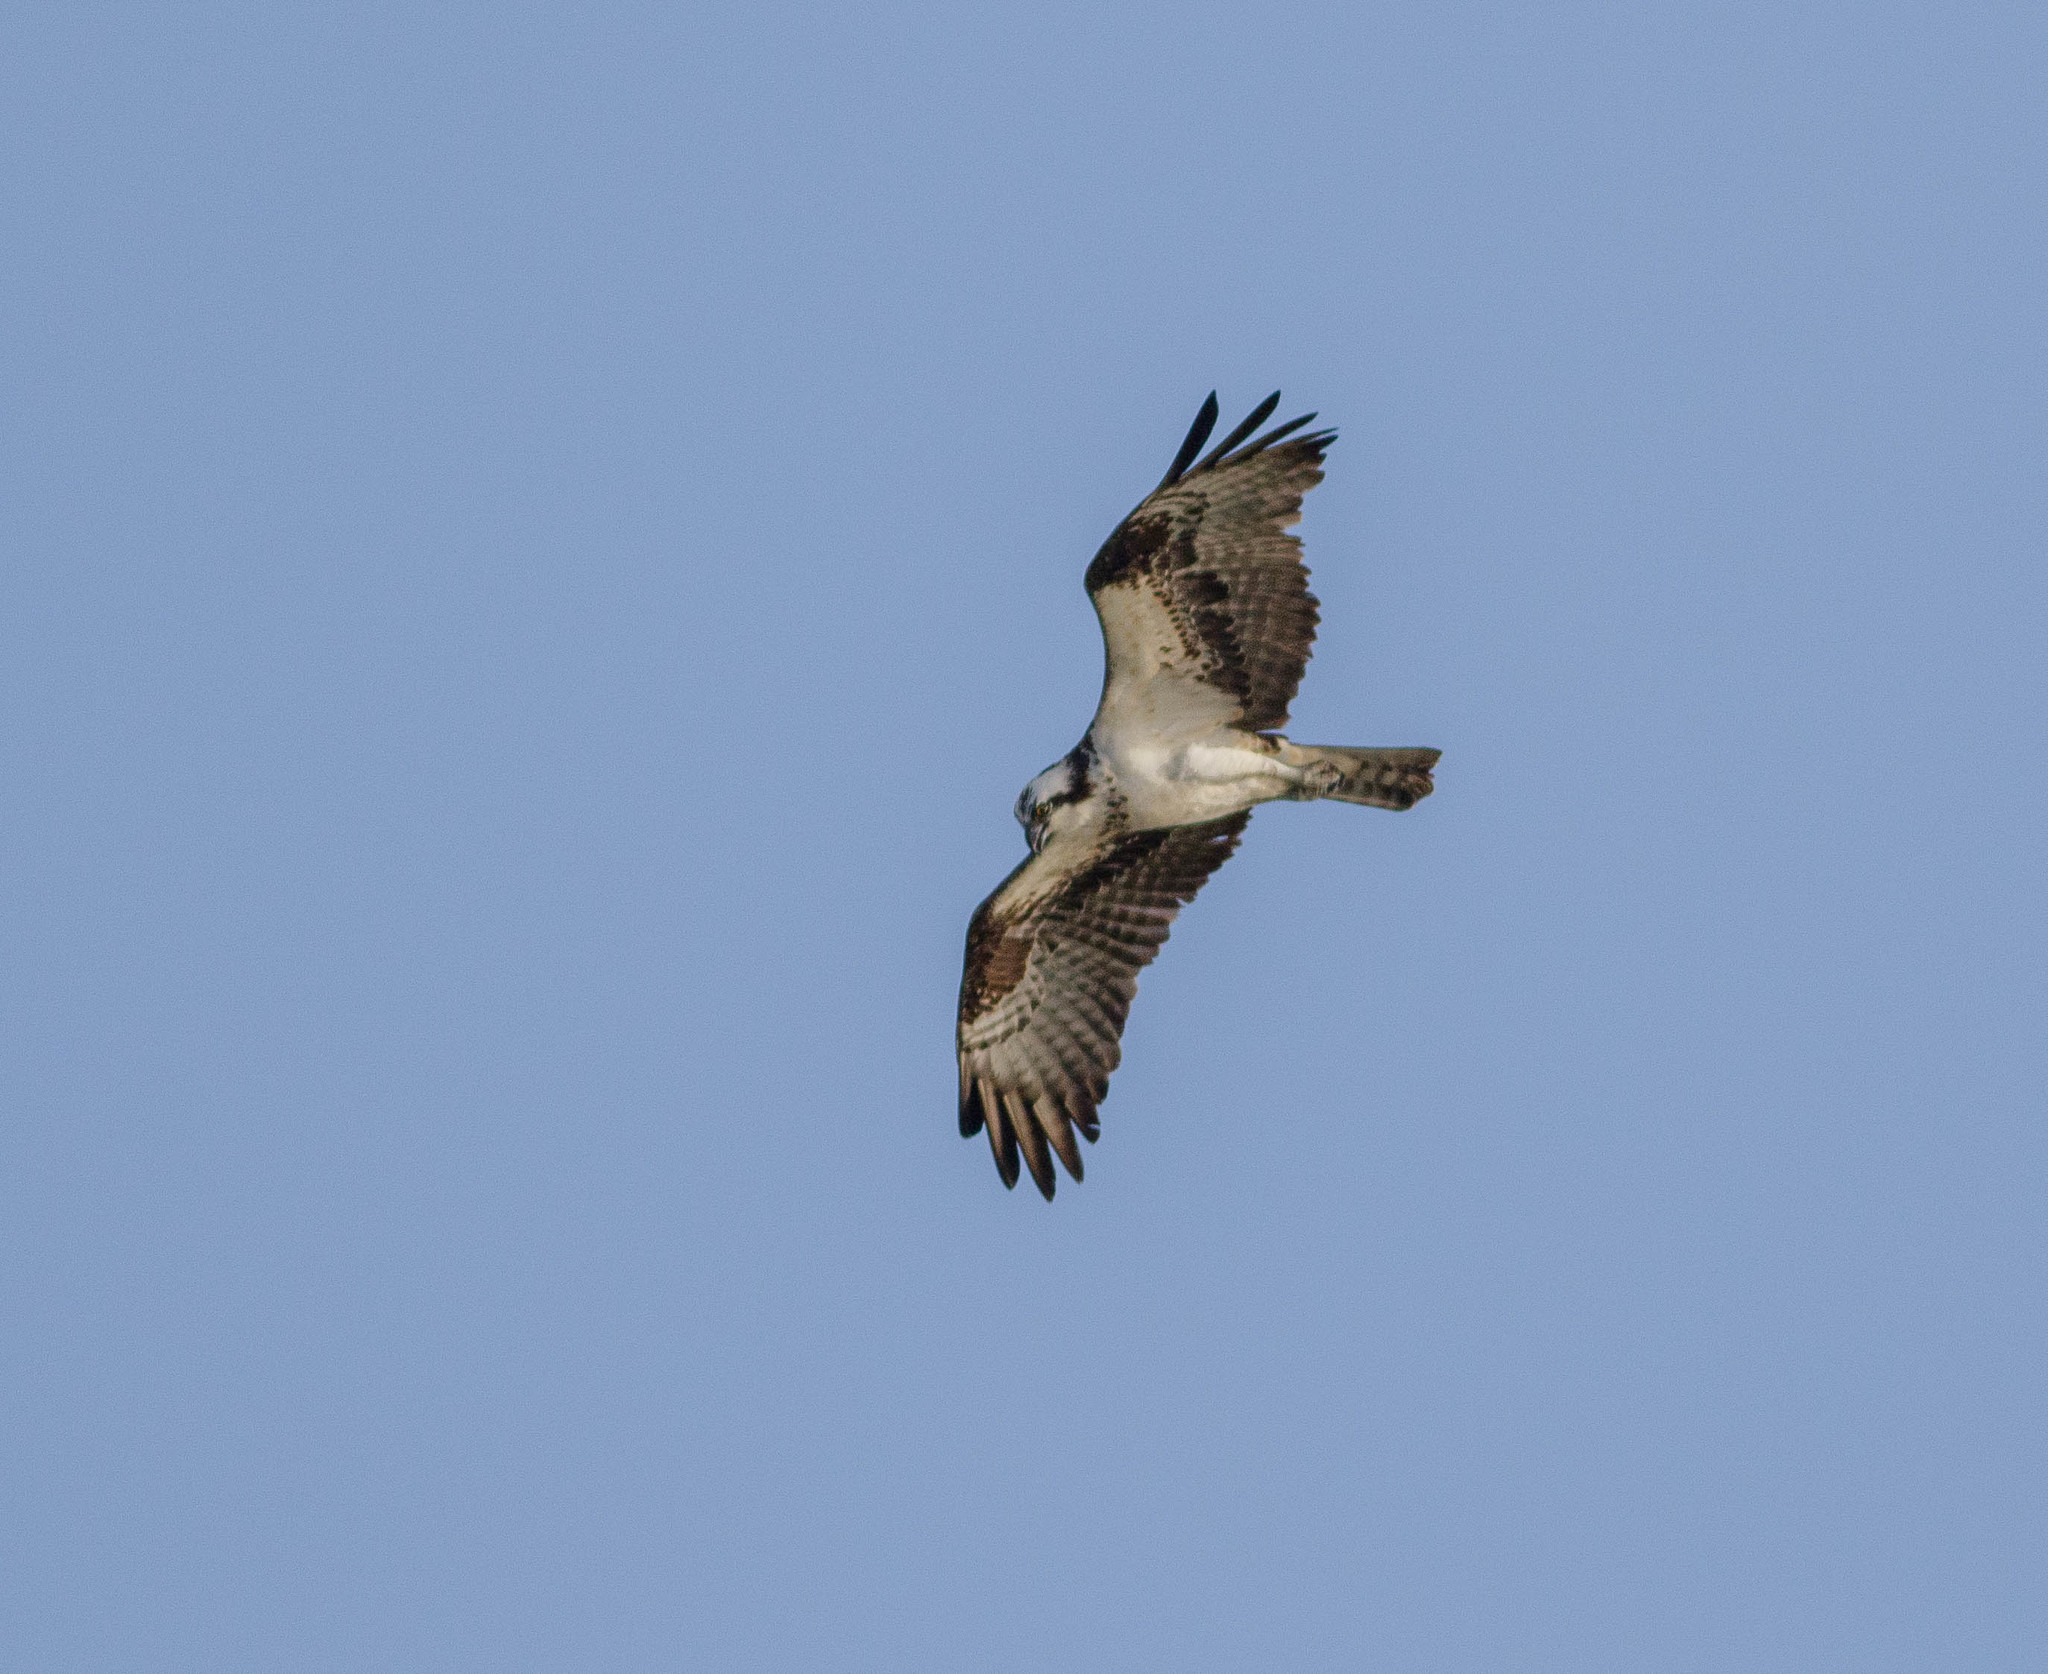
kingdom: Animalia
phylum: Chordata
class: Aves
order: Accipitriformes
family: Pandionidae
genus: Pandion
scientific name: Pandion haliaetus
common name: Osprey
